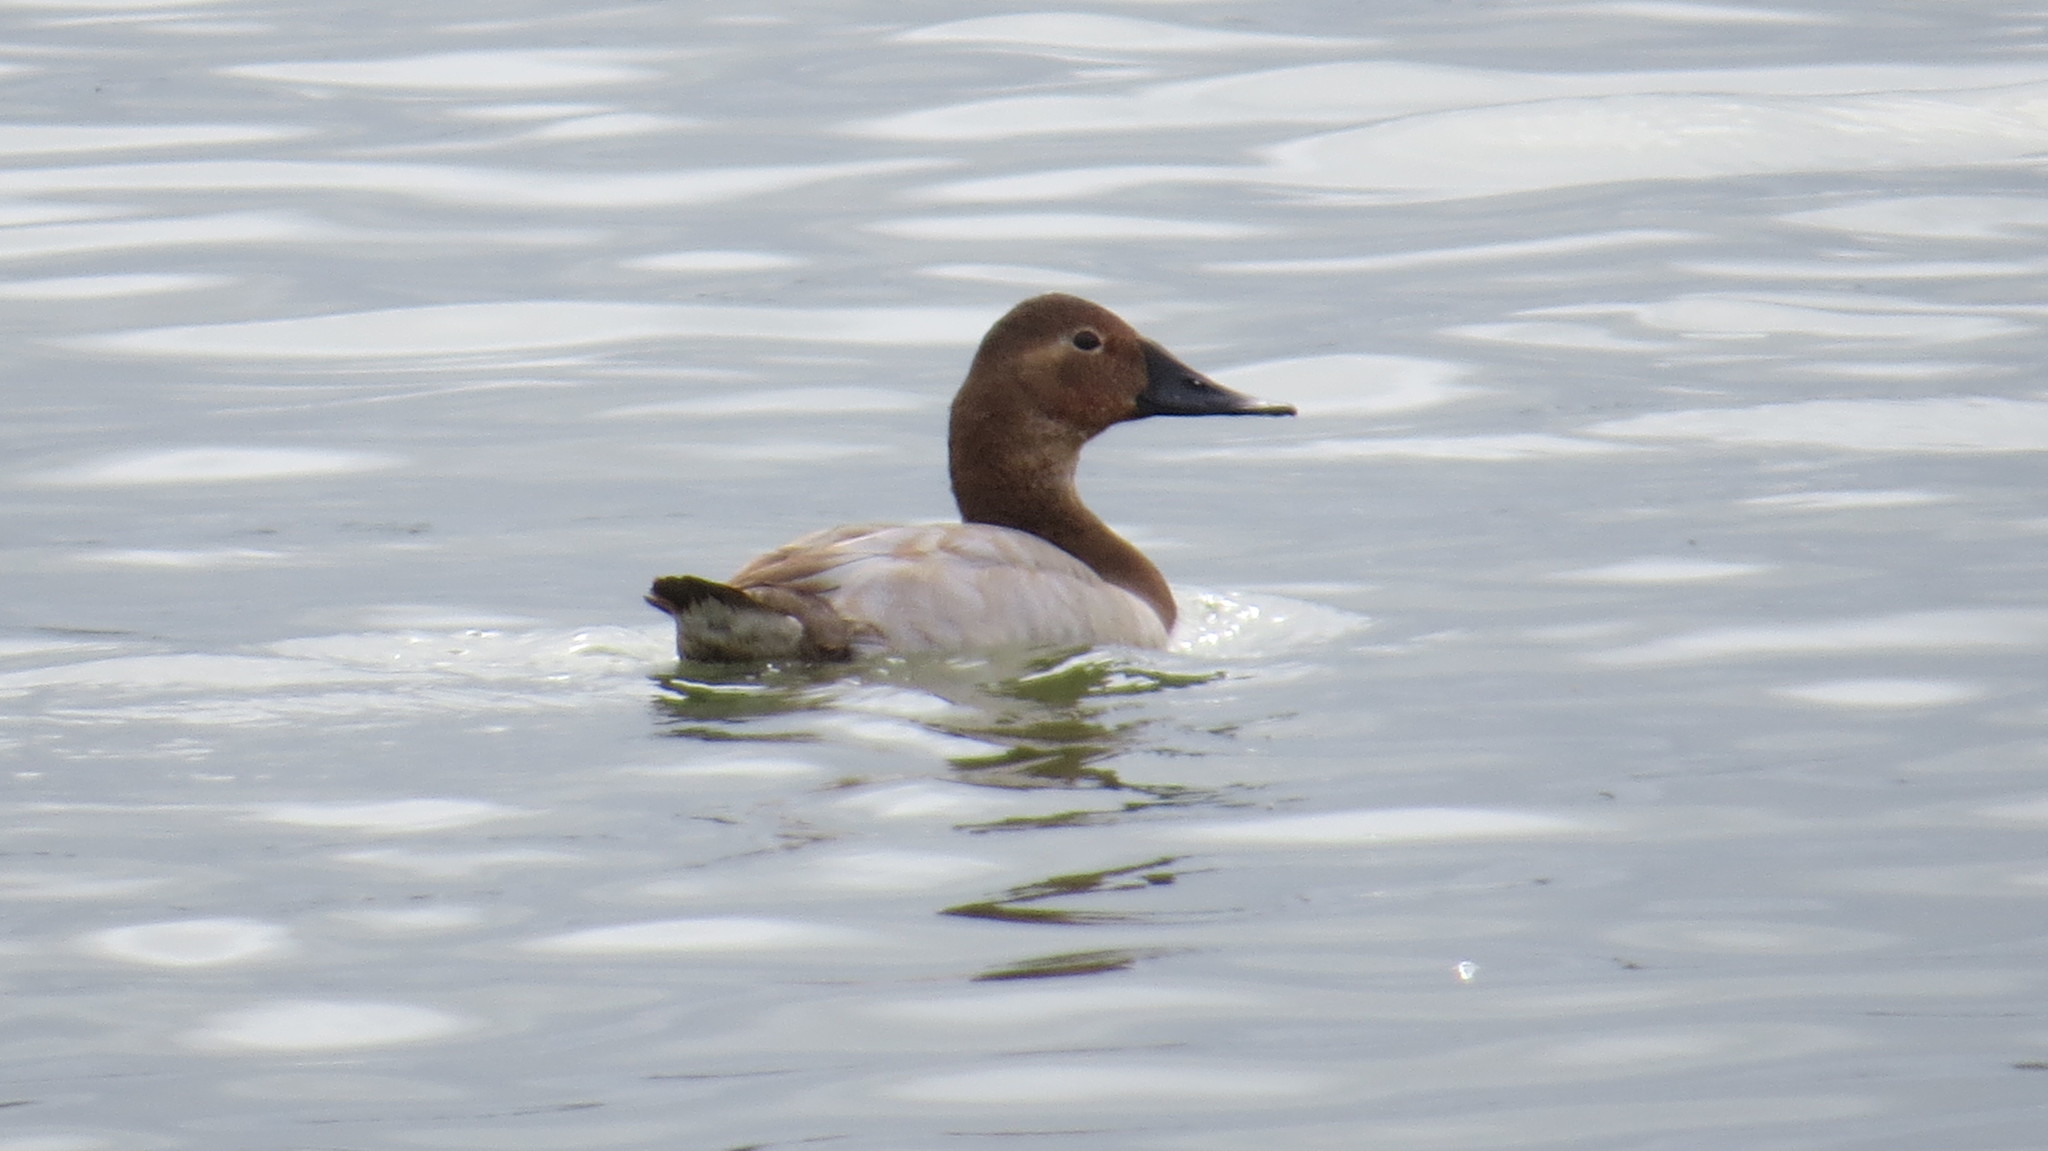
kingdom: Animalia
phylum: Chordata
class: Aves
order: Anseriformes
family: Anatidae
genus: Aythya
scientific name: Aythya valisineria
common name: Canvasback
